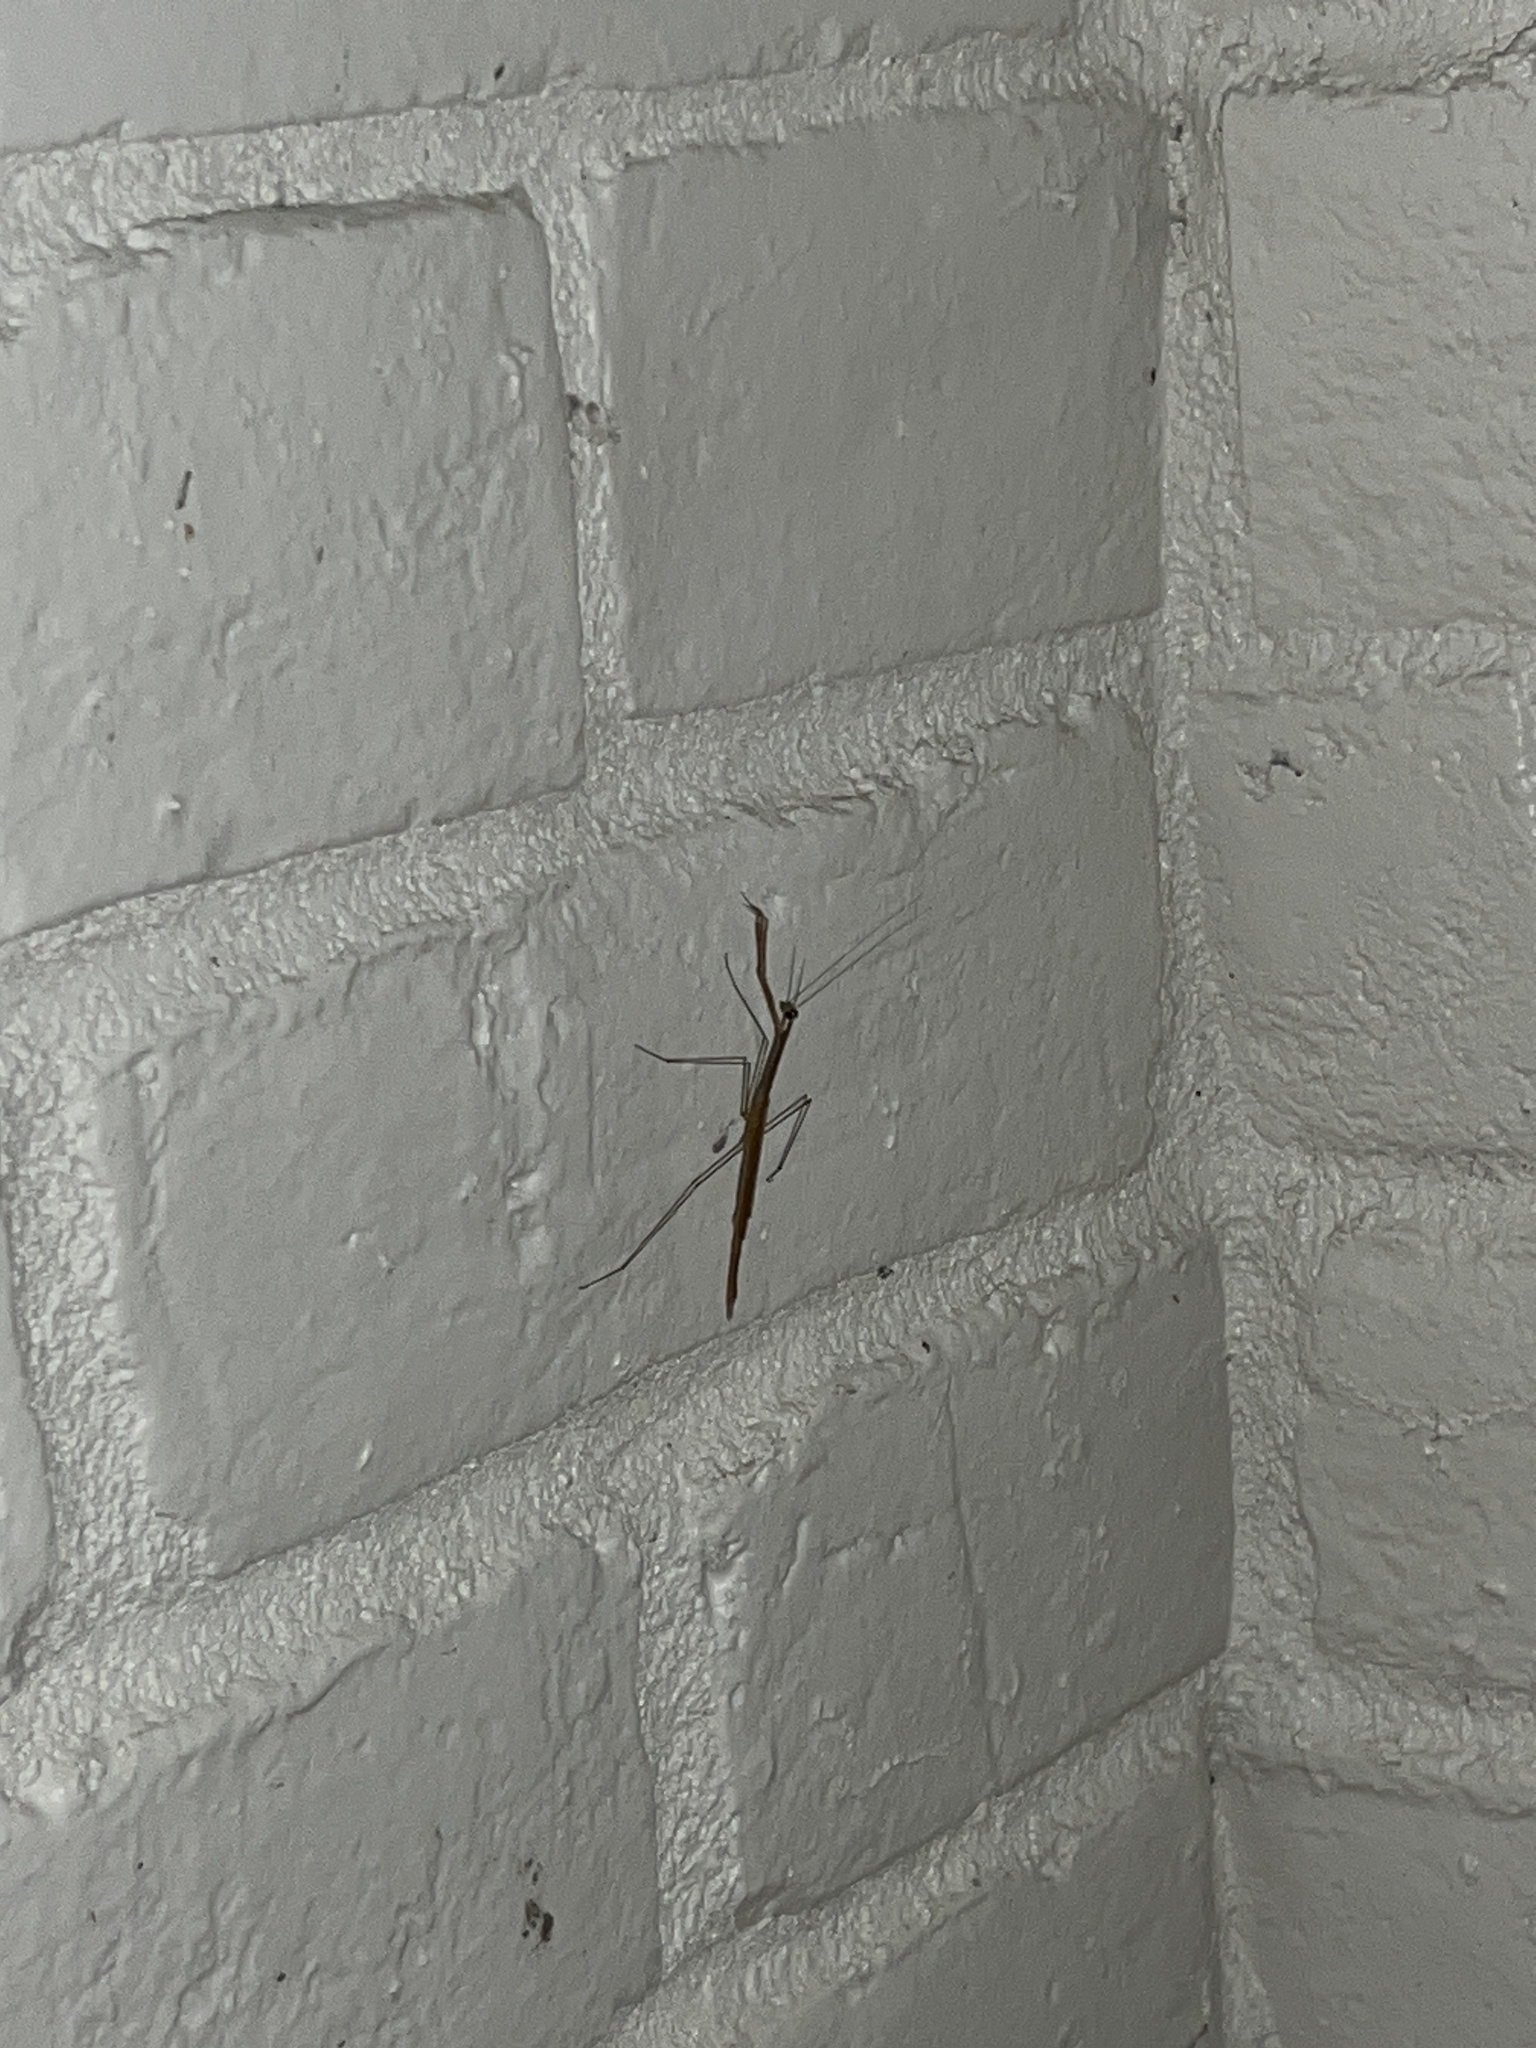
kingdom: Animalia
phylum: Arthropoda
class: Insecta
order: Mantodea
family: Thespidae
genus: Thesprotia
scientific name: Thesprotia graminis
